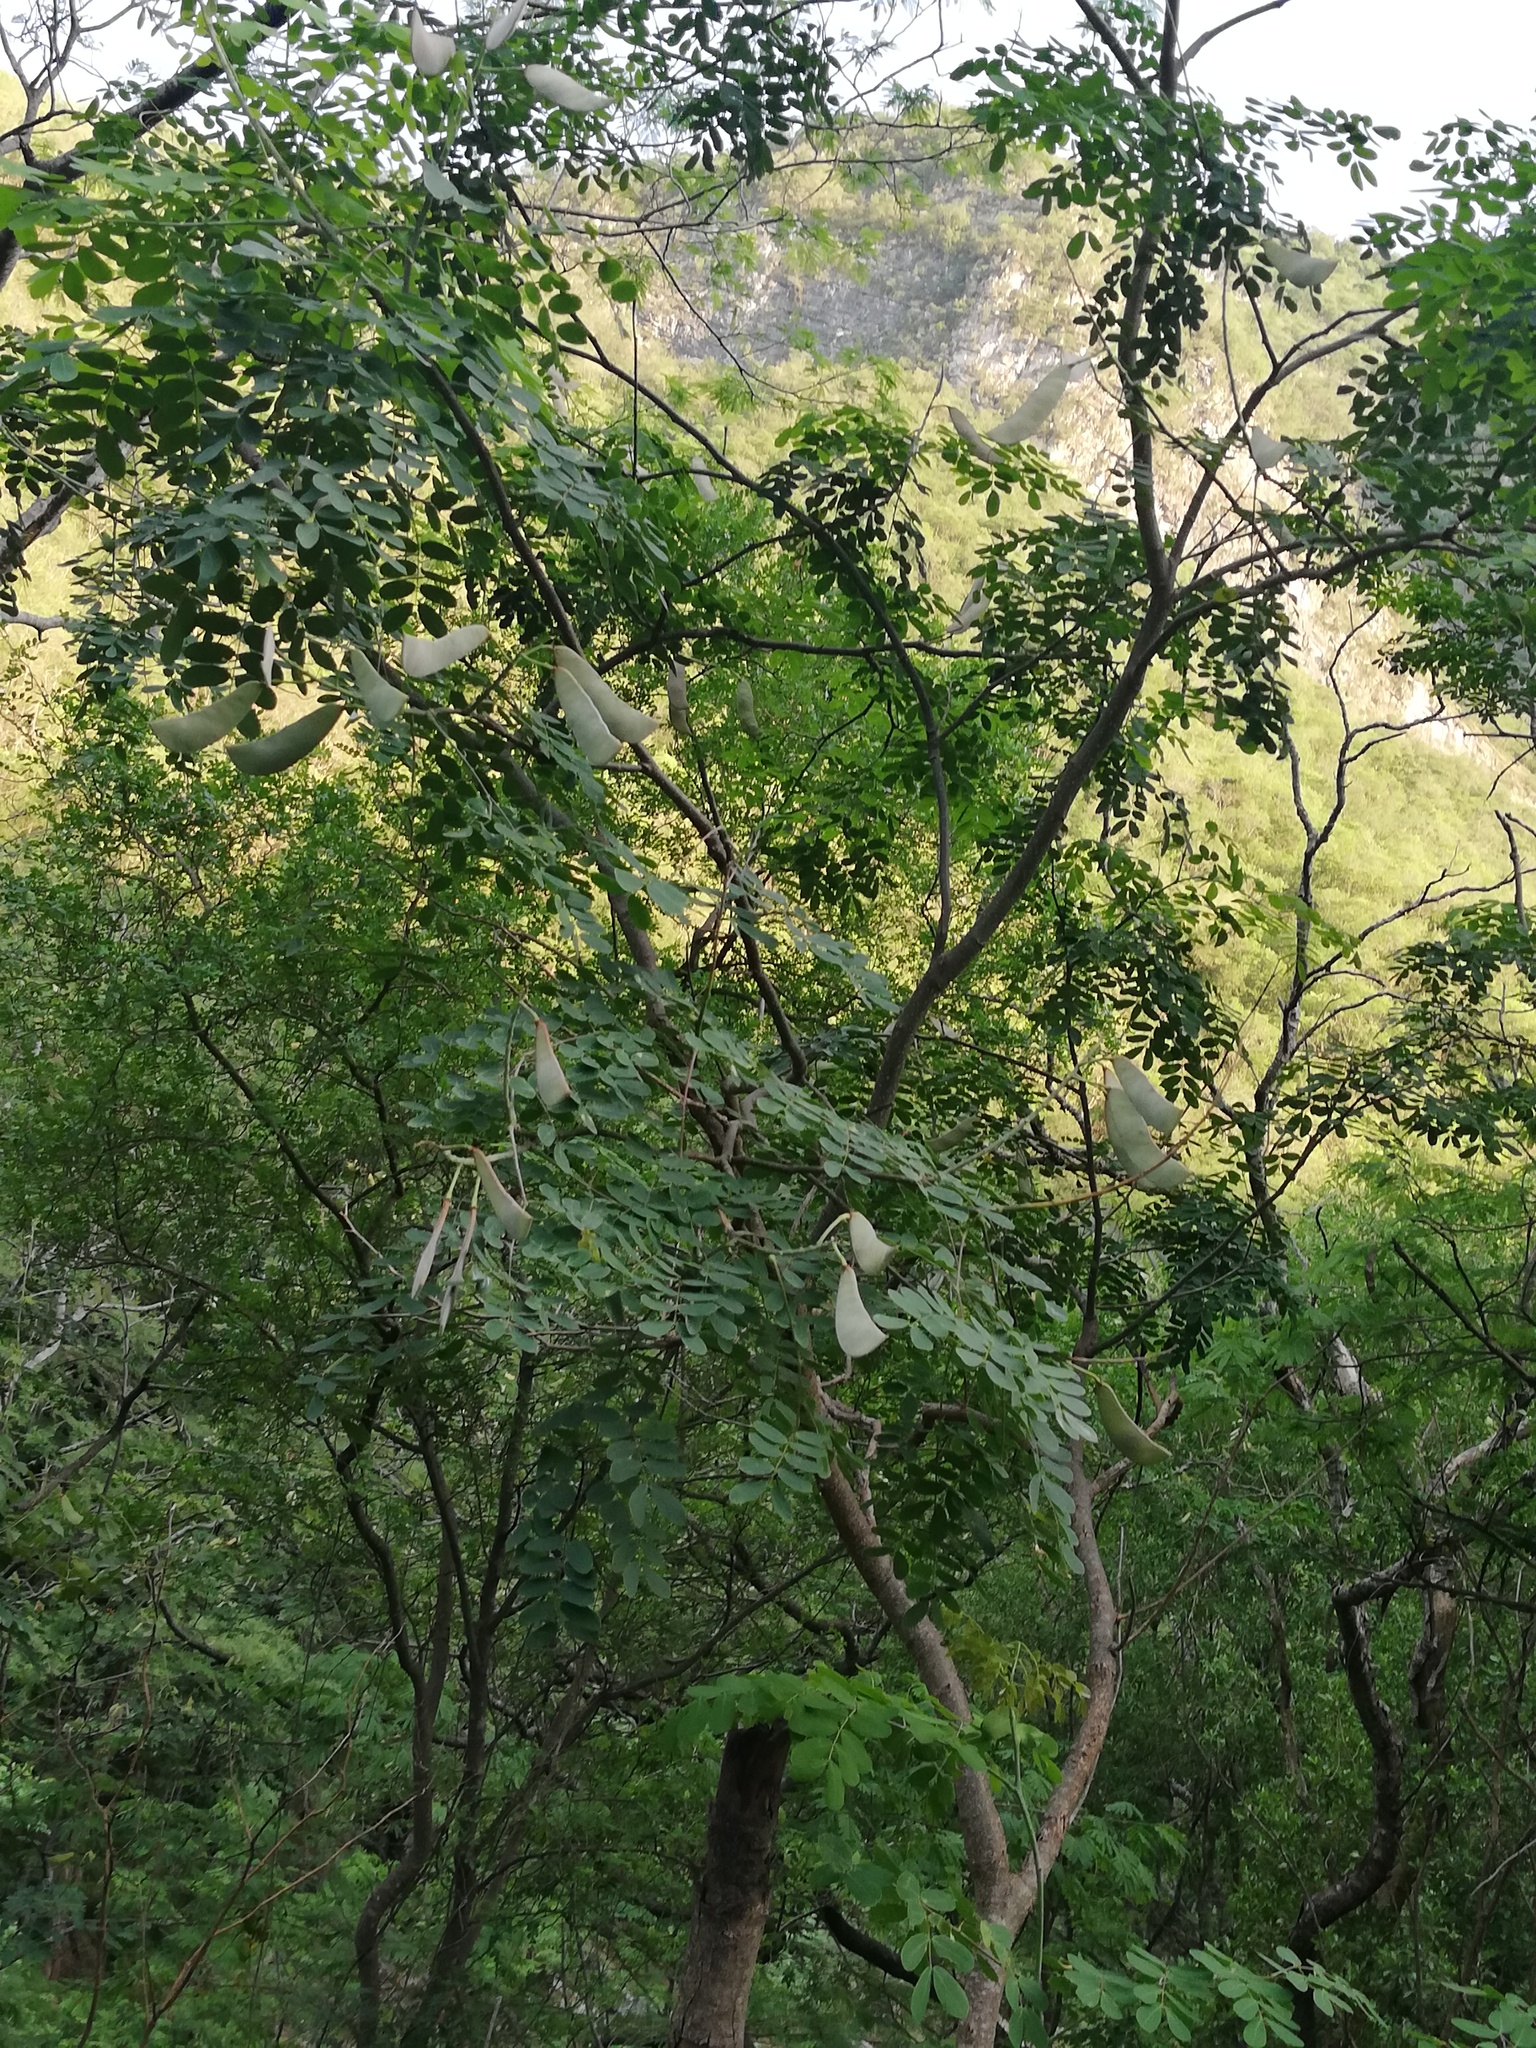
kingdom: Plantae
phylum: Tracheophyta
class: Magnoliopsida
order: Fabales
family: Fabaceae
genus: Erythrostemon
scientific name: Erythrostemon mexicanus
